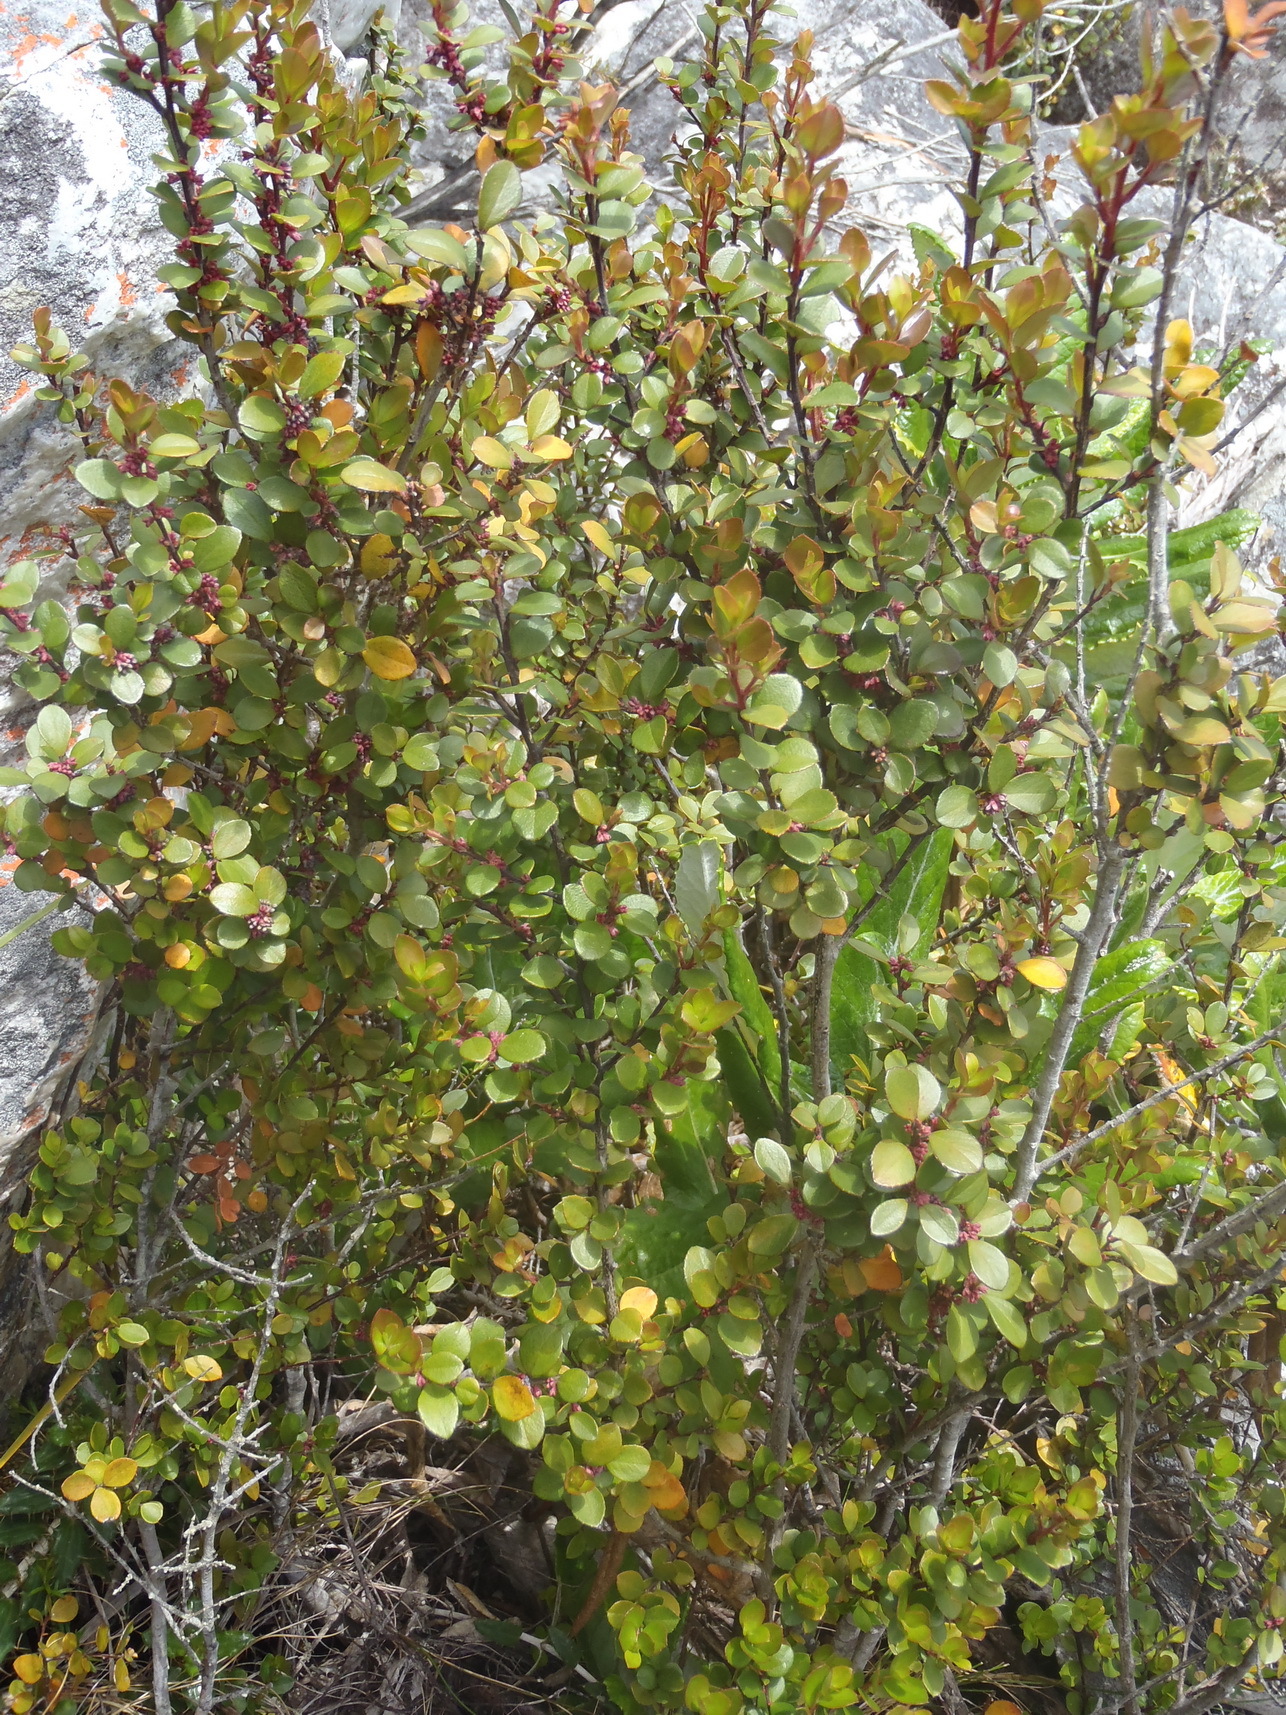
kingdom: Plantae
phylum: Tracheophyta
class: Magnoliopsida
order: Ericales
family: Primulaceae
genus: Myrsine
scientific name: Myrsine africana
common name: African-boxwood
